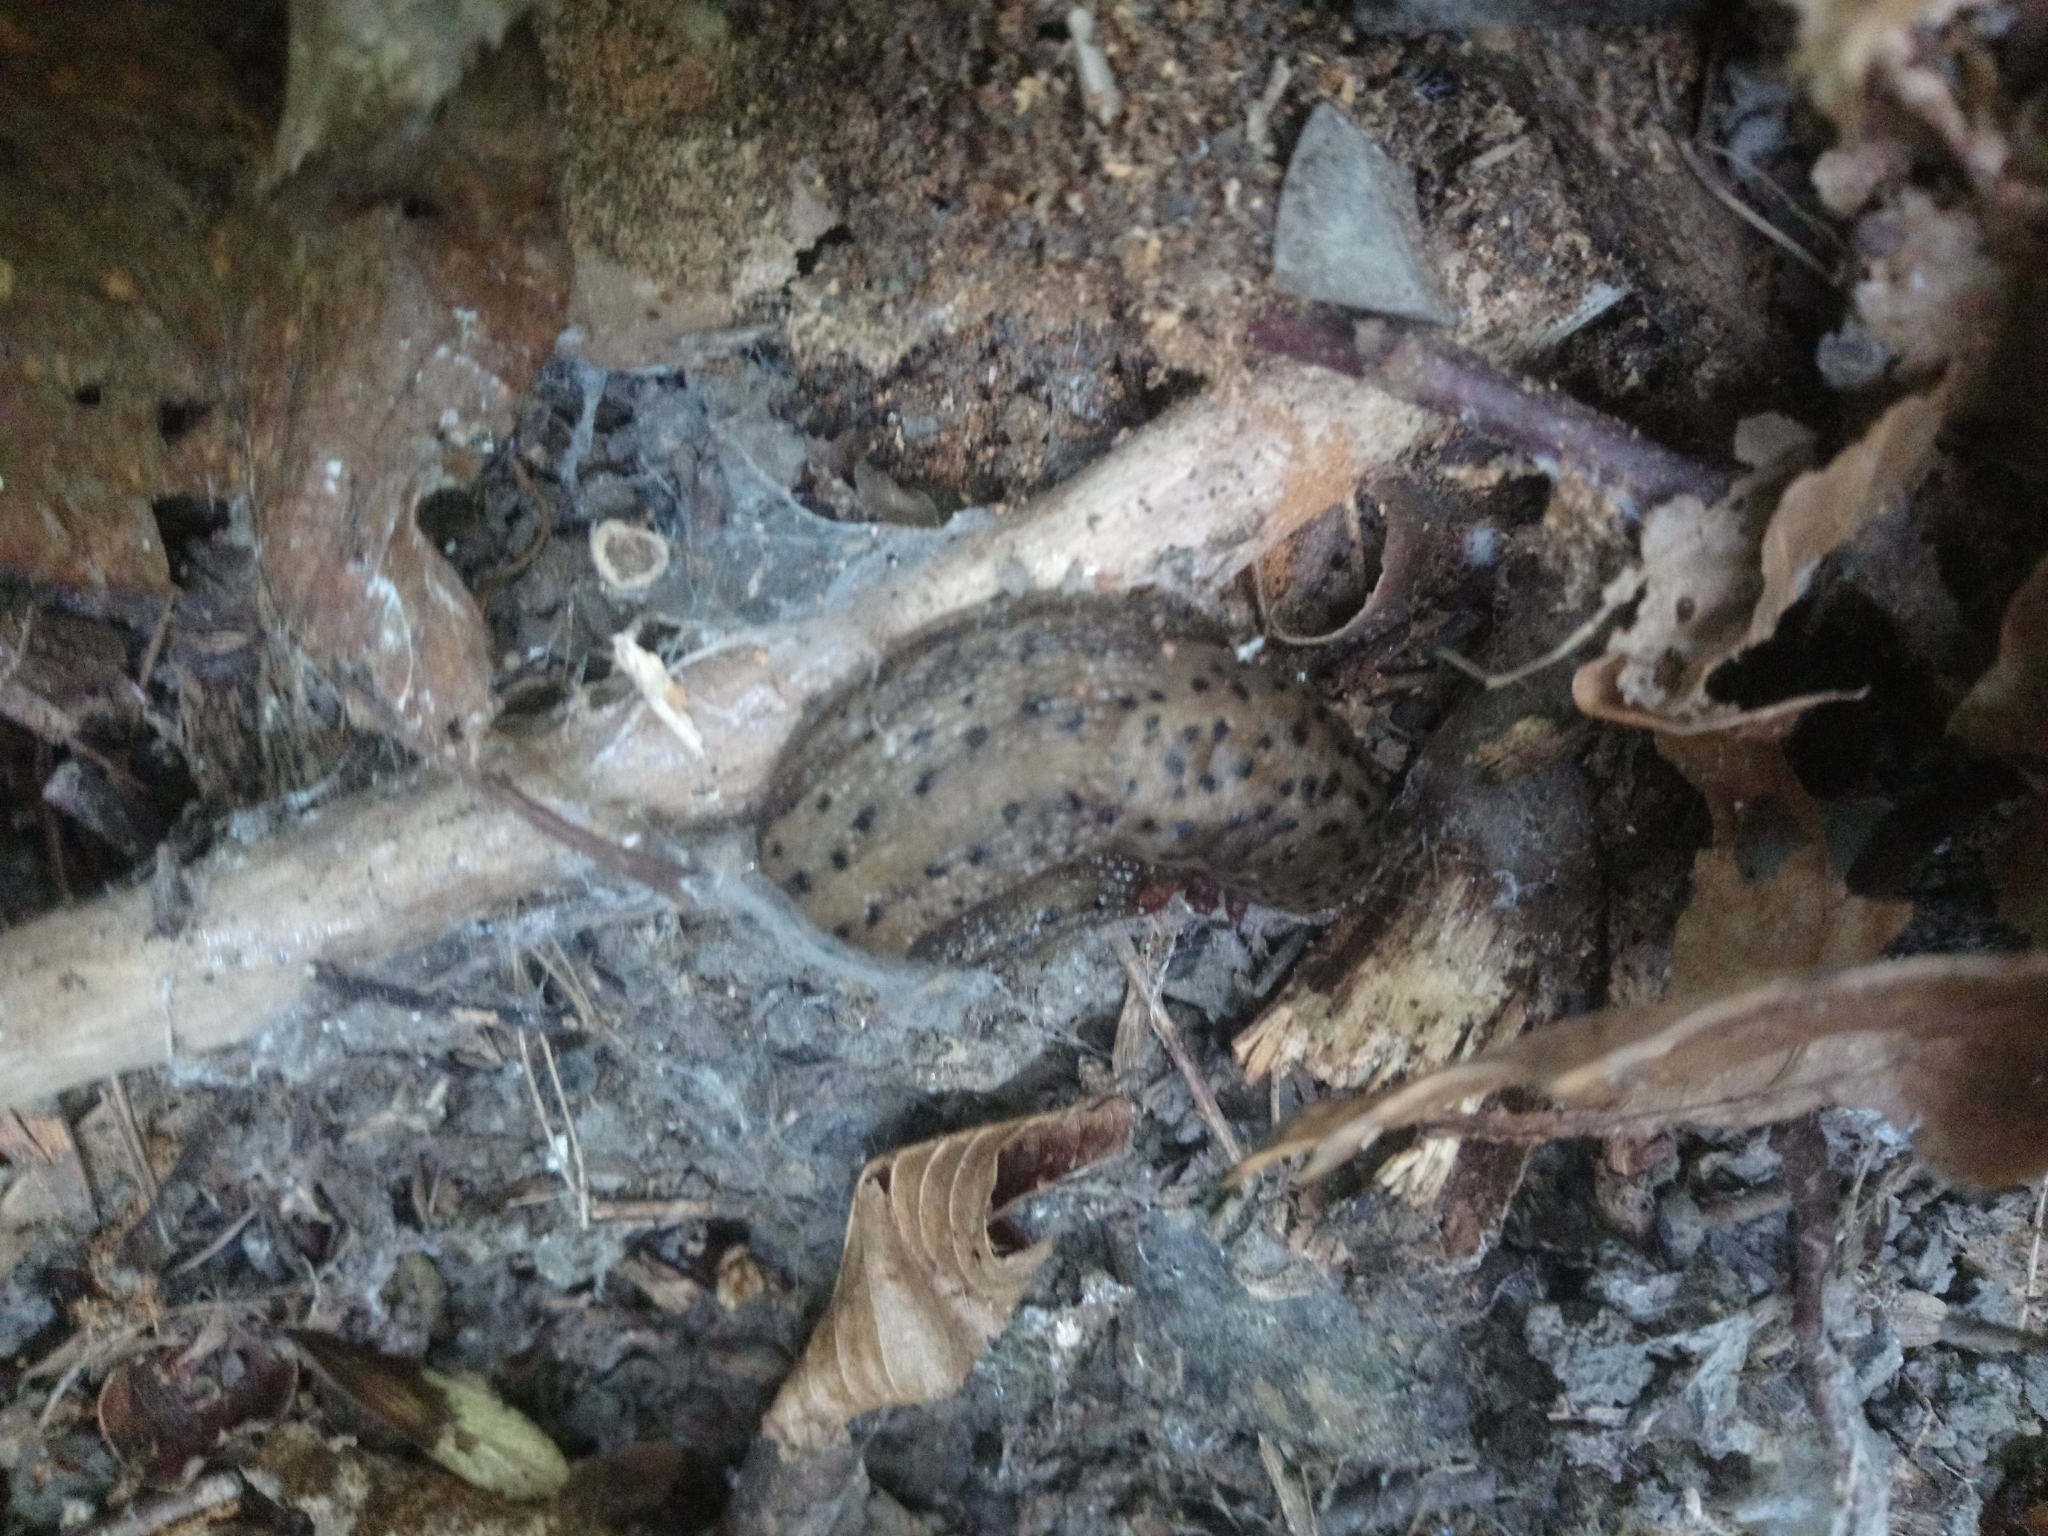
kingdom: Animalia
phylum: Mollusca
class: Gastropoda
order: Stylommatophora
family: Limacidae
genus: Limax
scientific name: Limax maximus
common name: Great grey slug
